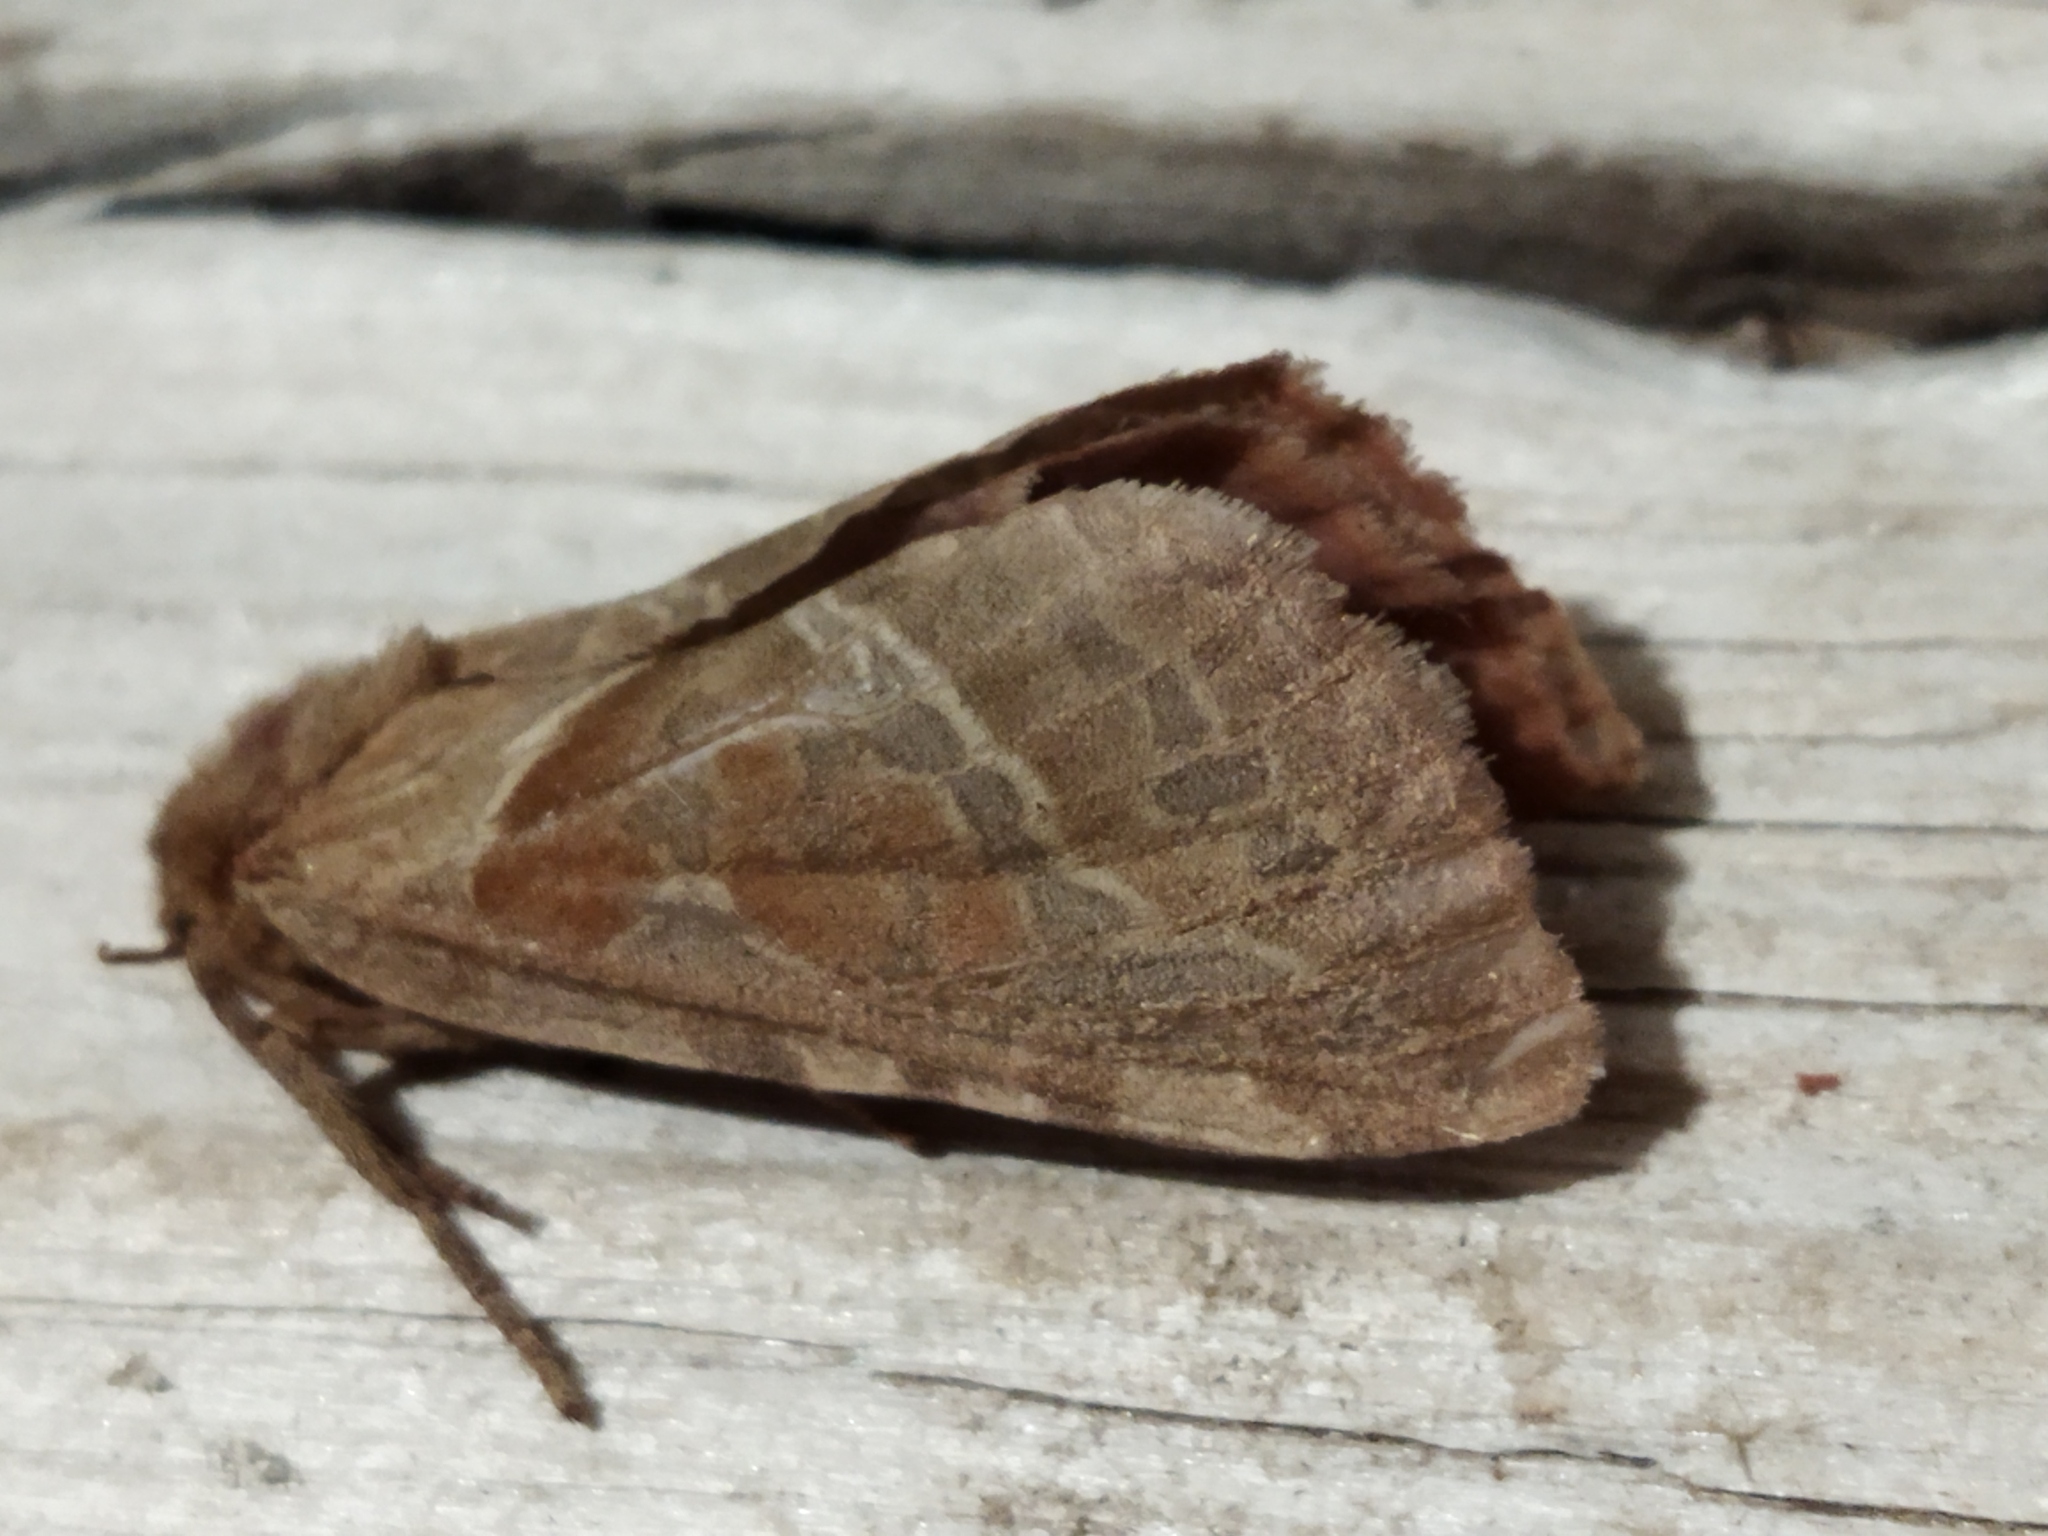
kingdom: Animalia
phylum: Arthropoda
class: Insecta
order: Lepidoptera
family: Hepialidae
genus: Triodia
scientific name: Triodia sylvina
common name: Orange swift
